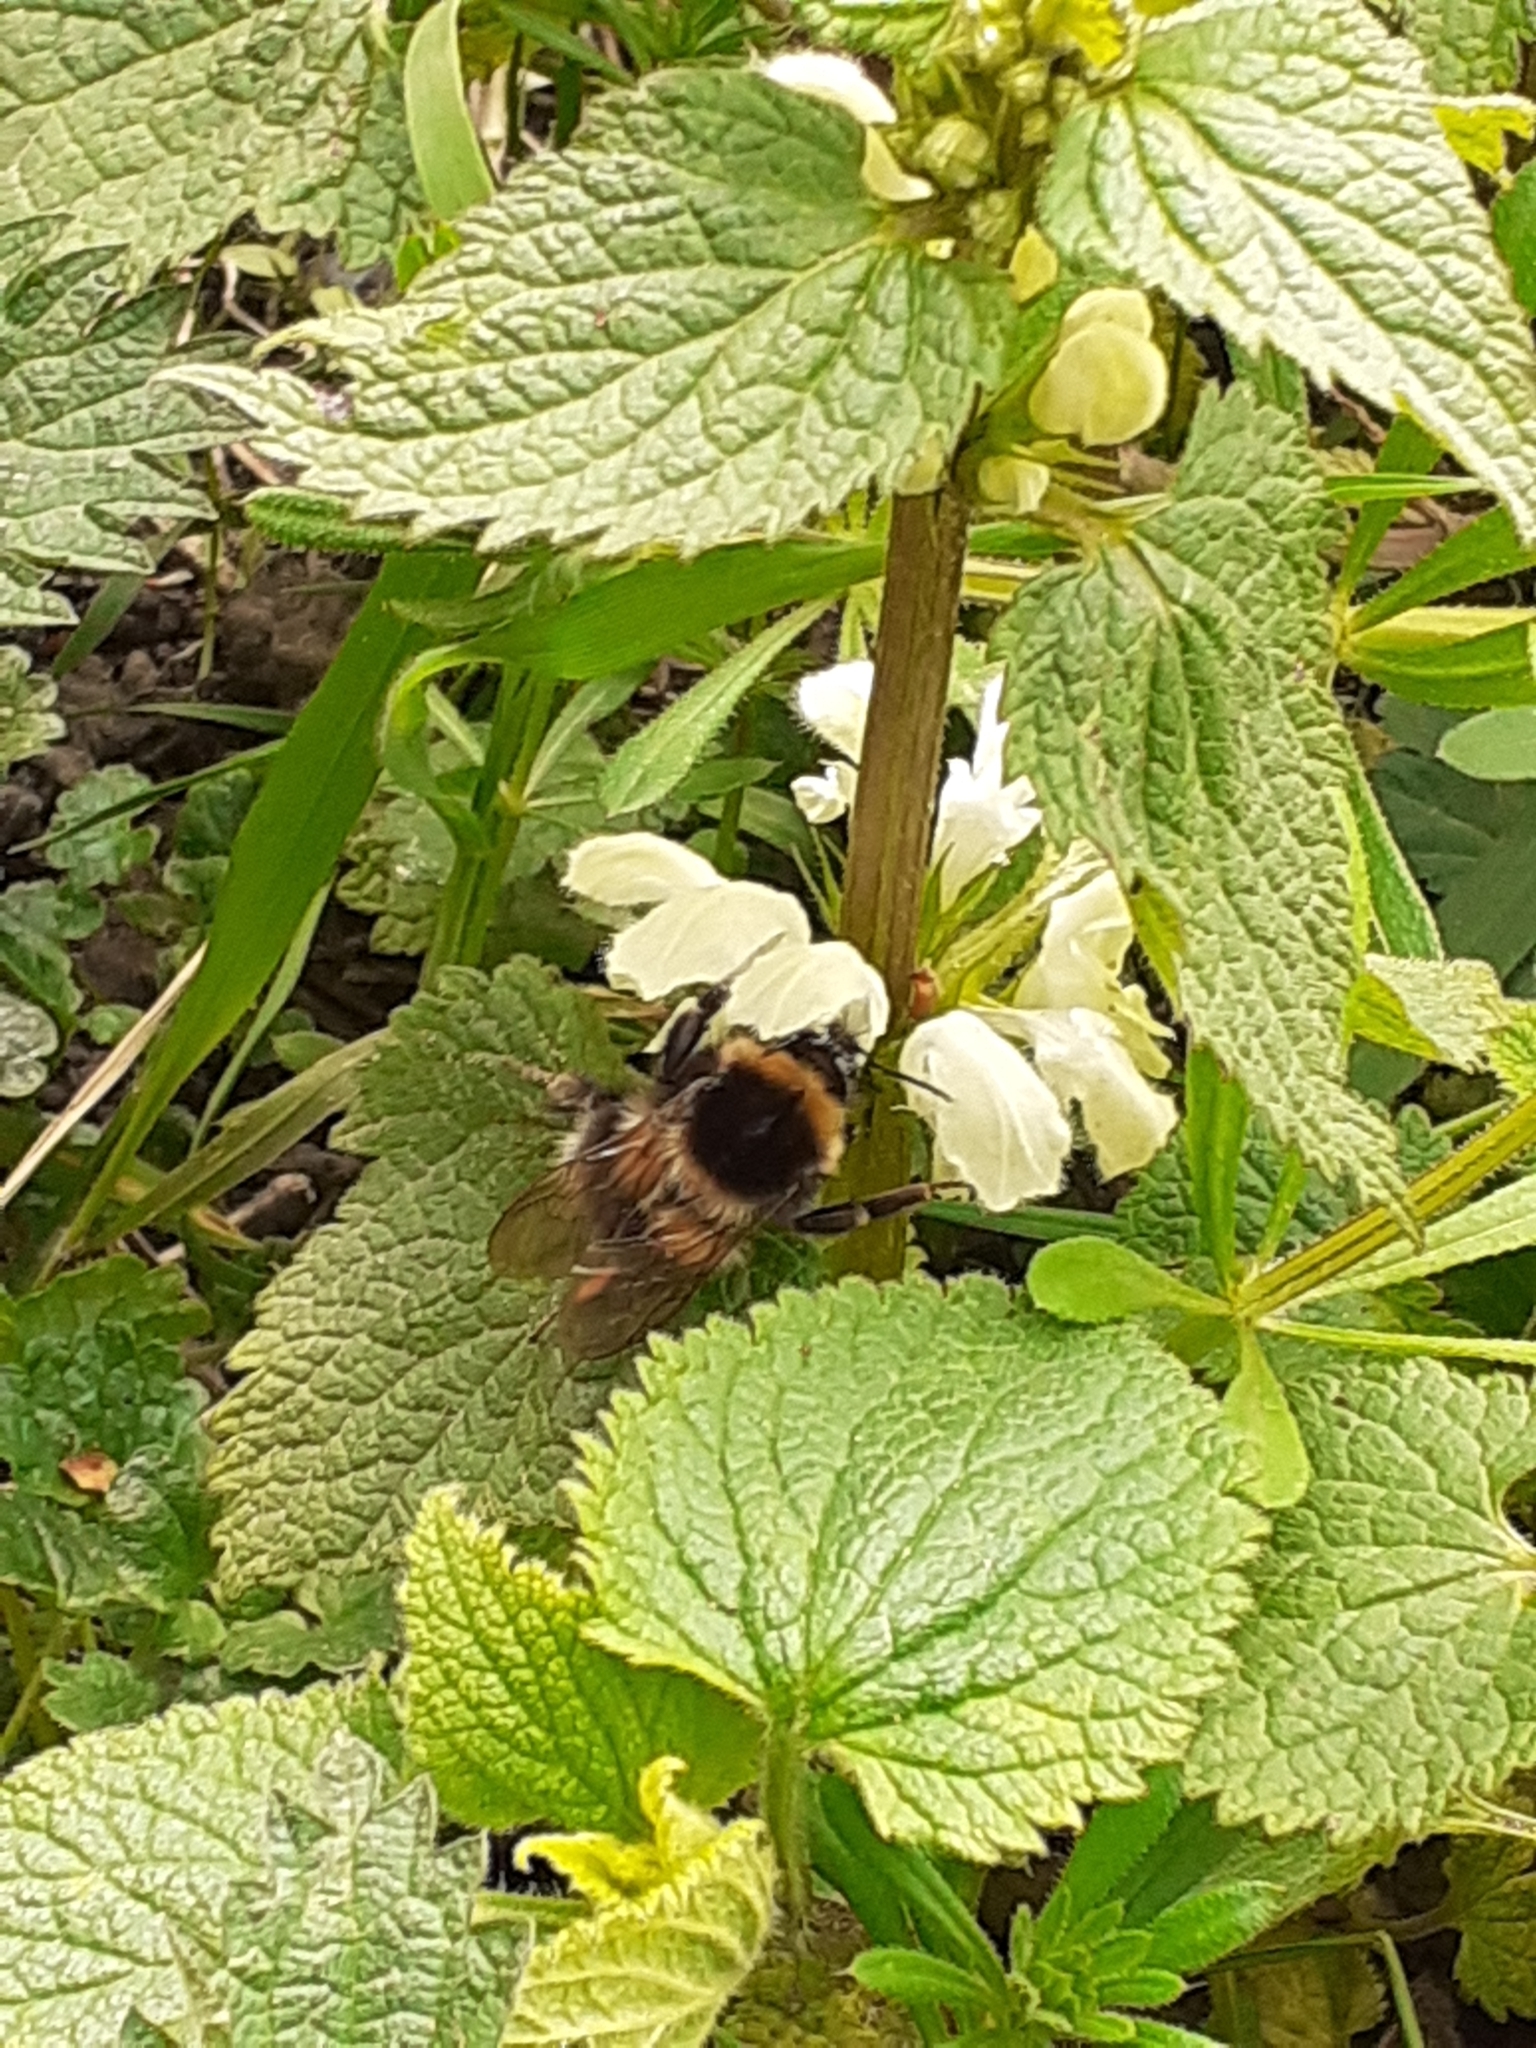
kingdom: Animalia
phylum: Arthropoda
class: Insecta
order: Hymenoptera
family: Apidae
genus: Bombus
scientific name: Bombus hortorum
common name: Garden bumblebee
